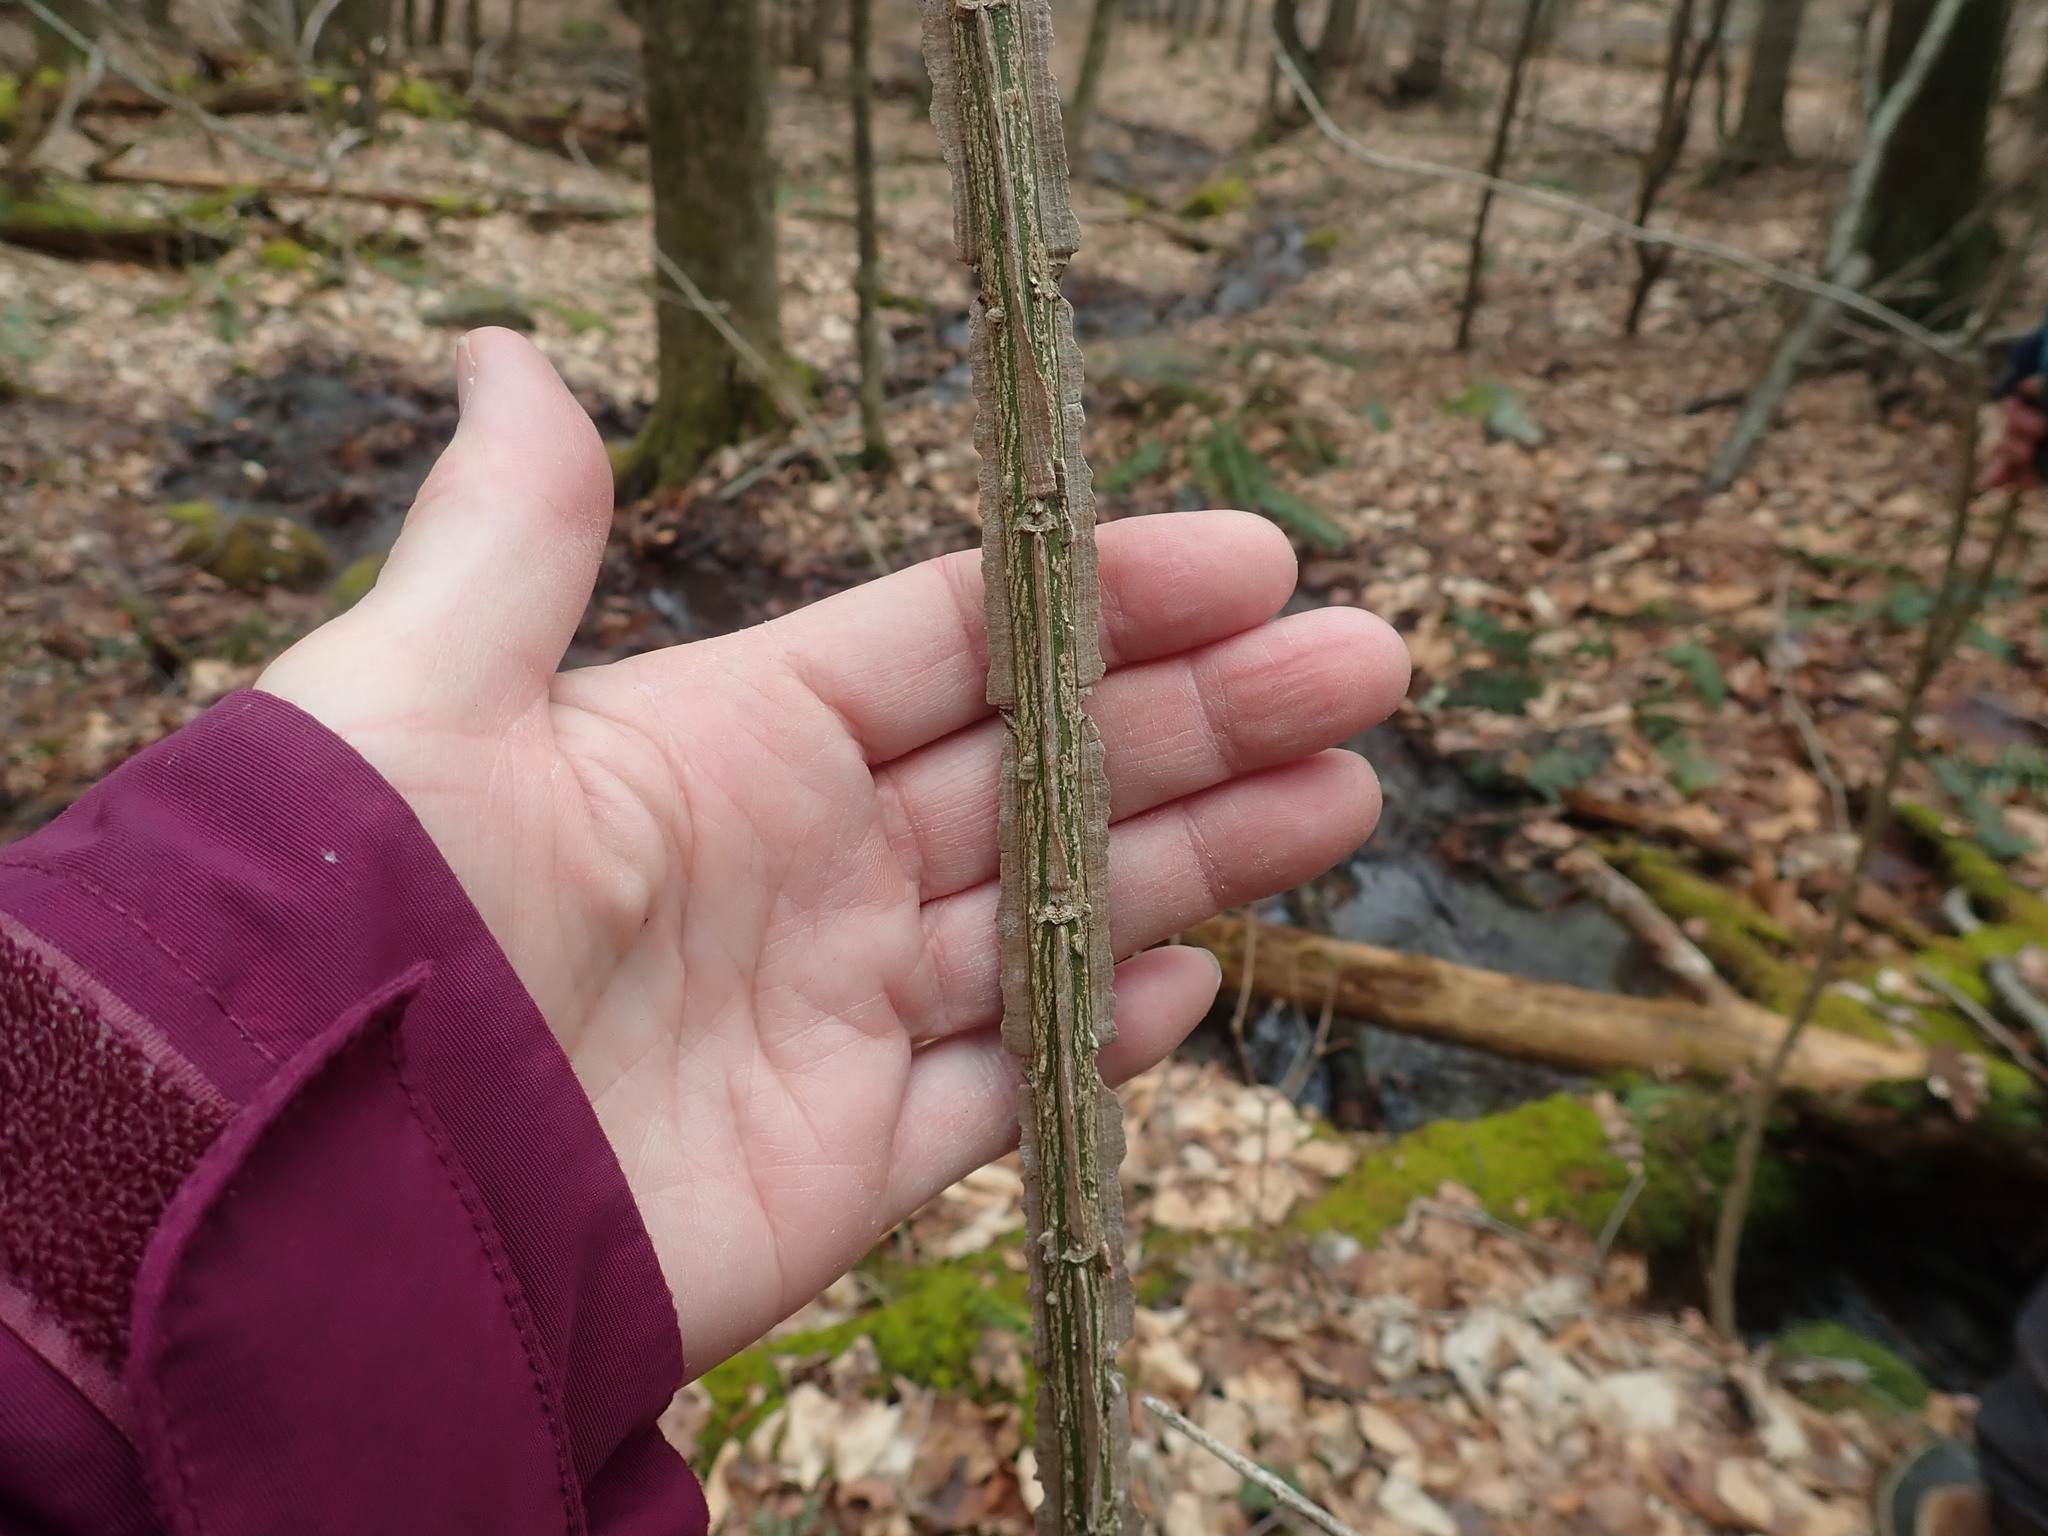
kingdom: Plantae
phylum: Tracheophyta
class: Magnoliopsida
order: Celastrales
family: Celastraceae
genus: Euonymus
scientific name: Euonymus alatus
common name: Winged euonymus
